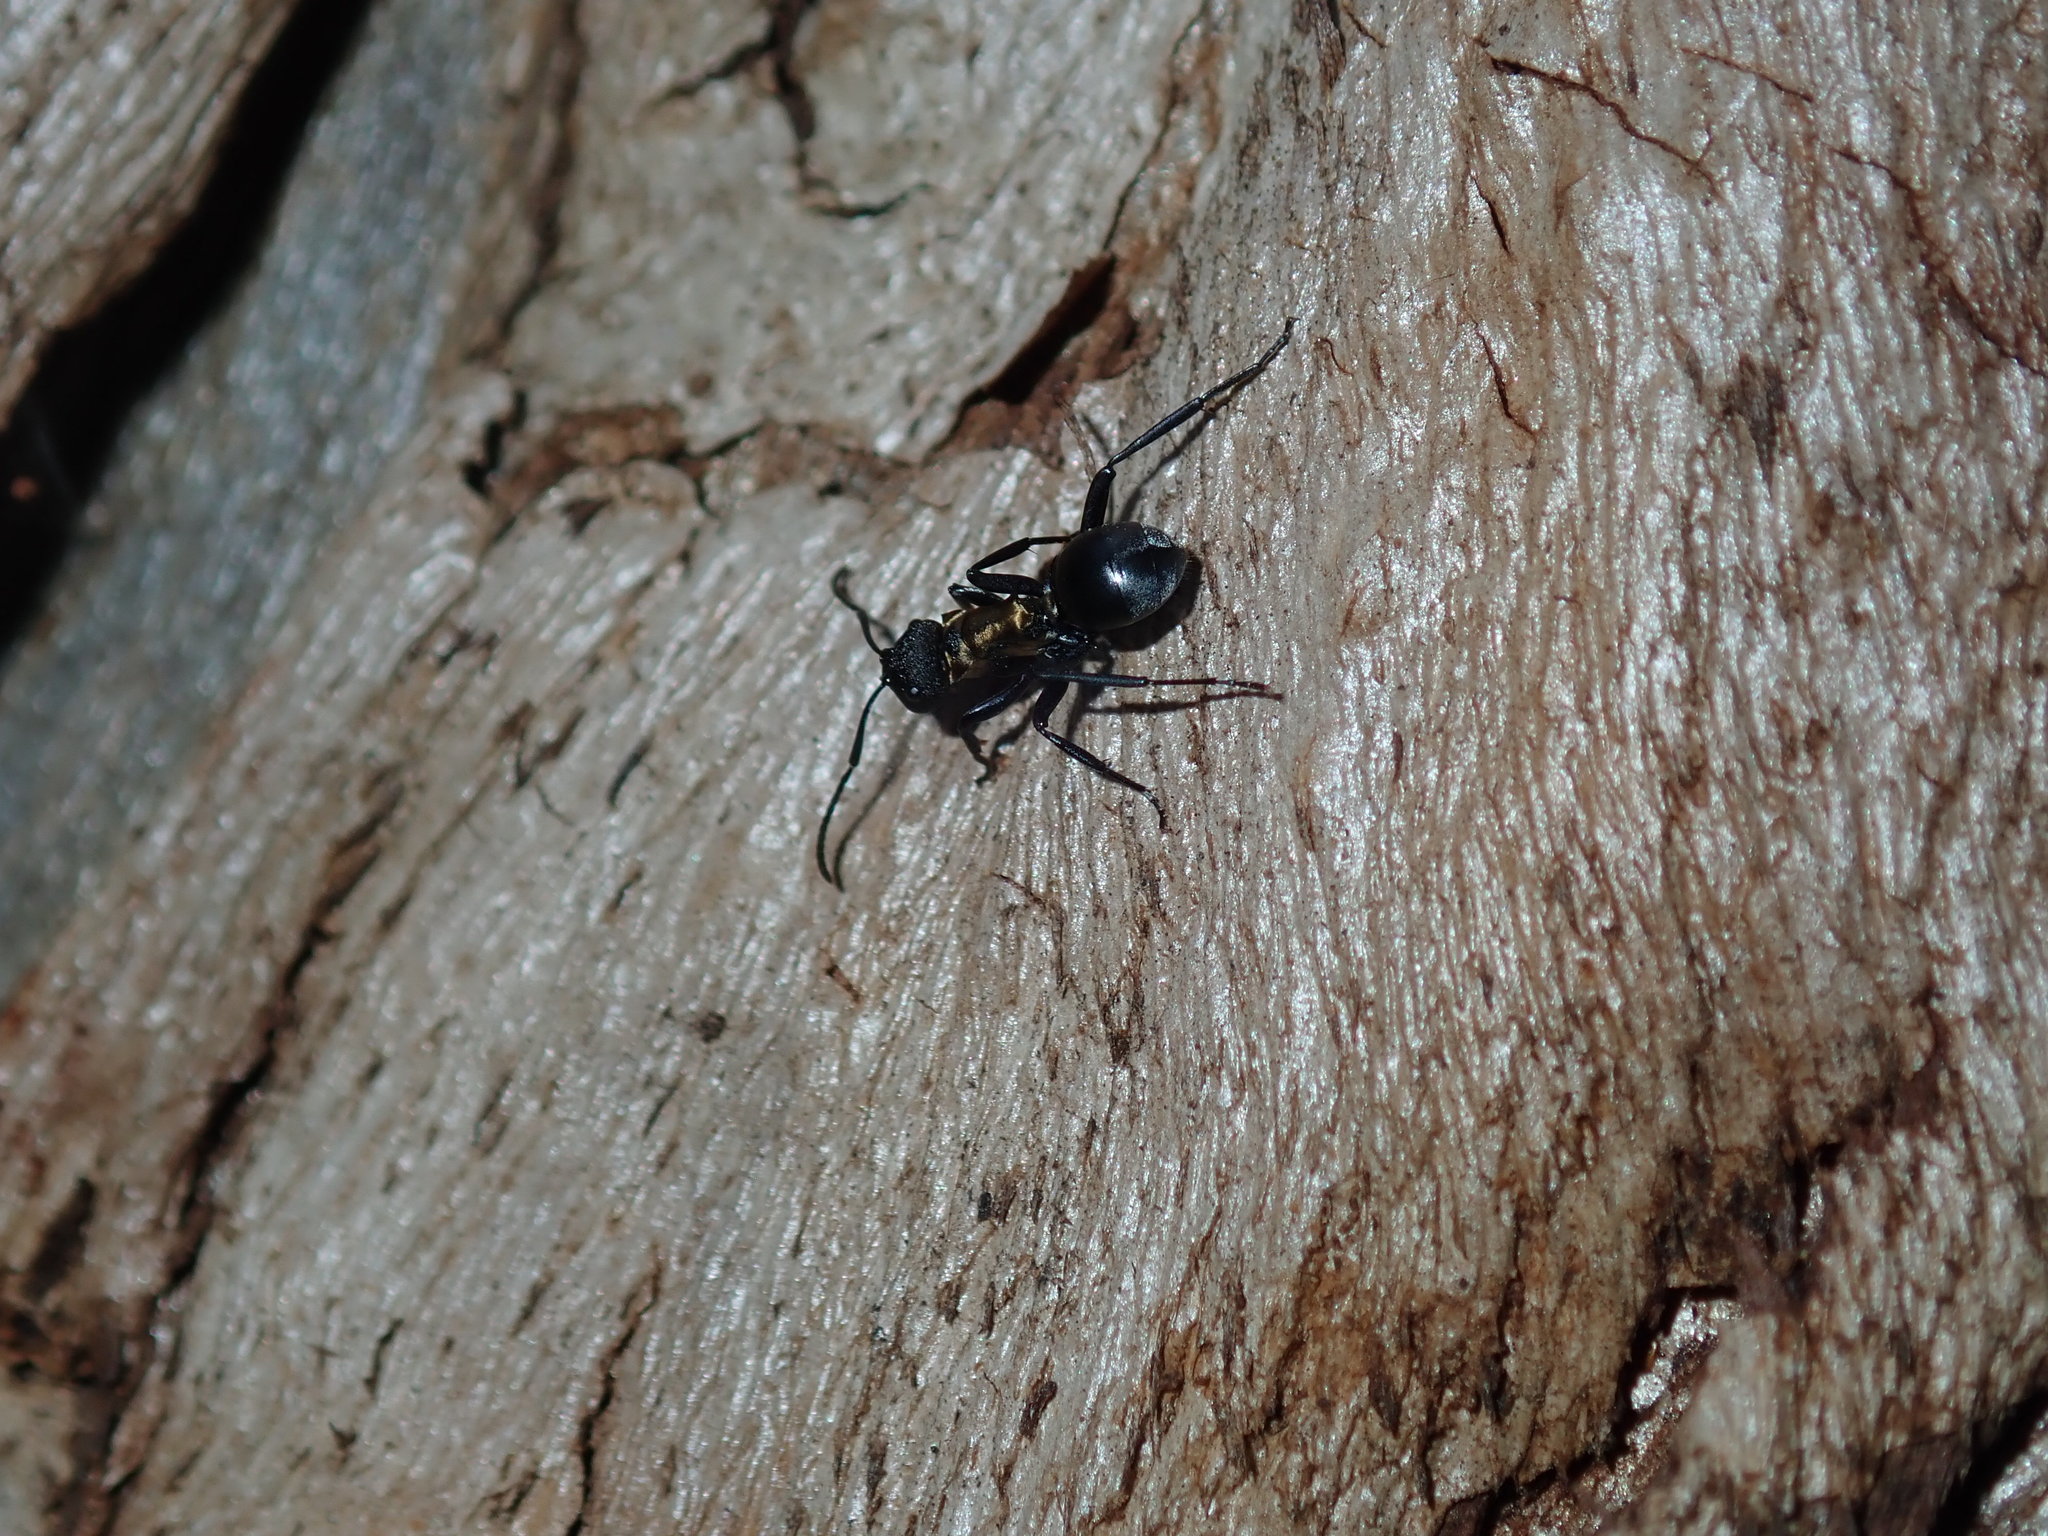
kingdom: Animalia
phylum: Arthropoda
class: Insecta
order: Hymenoptera
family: Formicidae
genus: Polyrhachis
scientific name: Polyrhachis ornata
